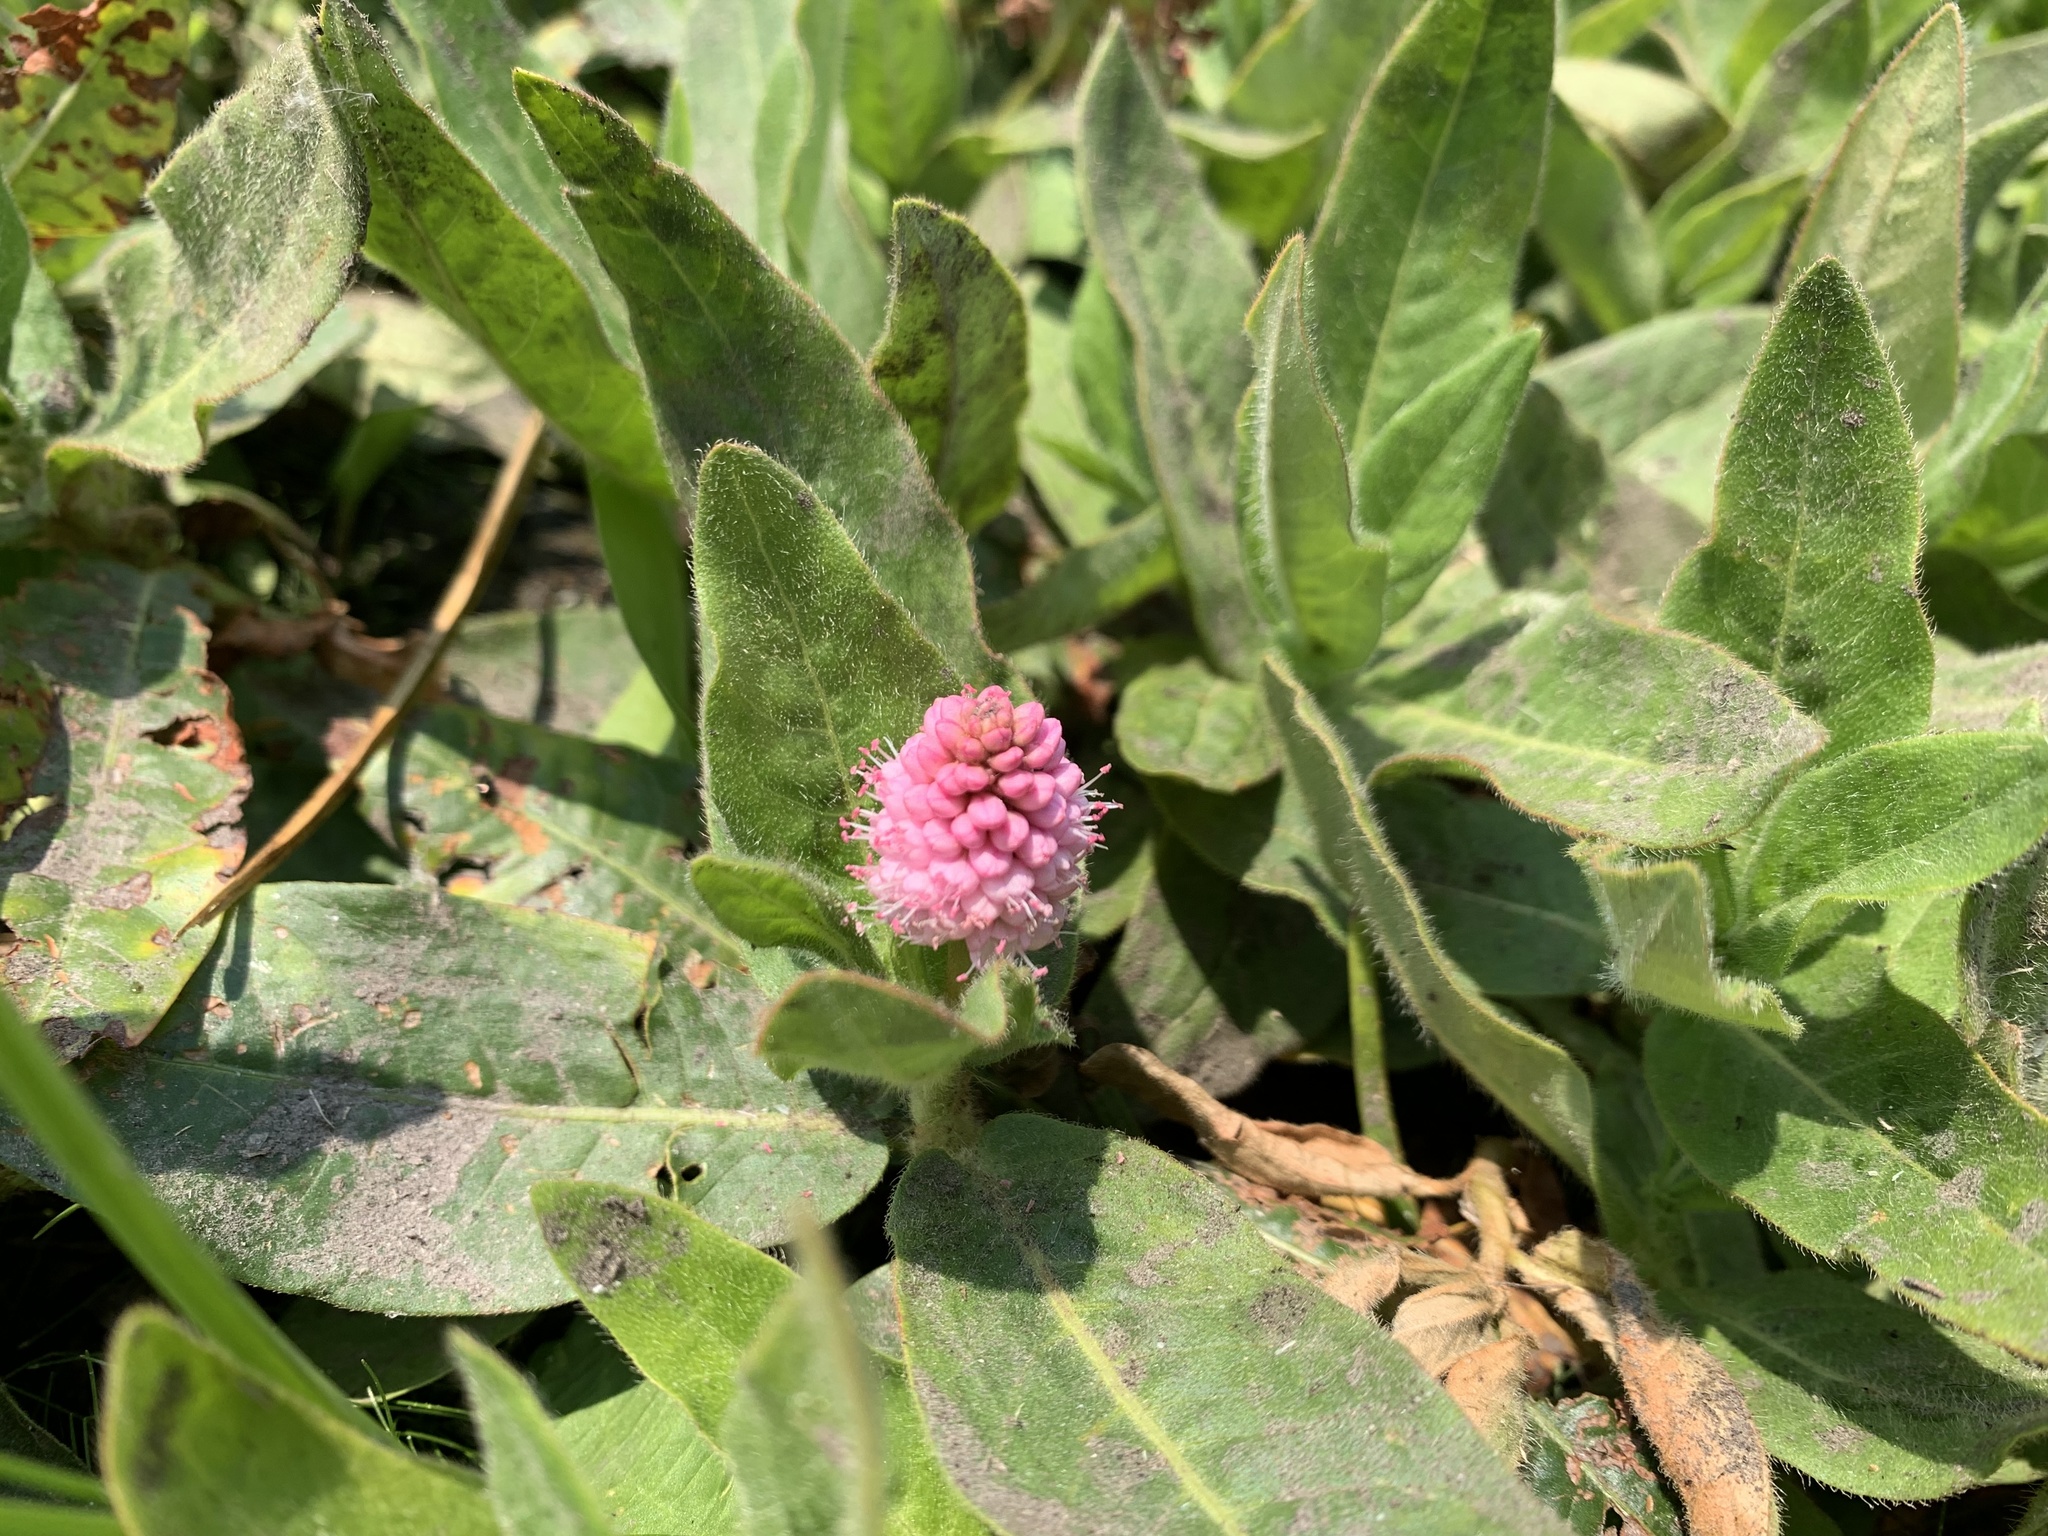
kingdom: Plantae
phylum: Tracheophyta
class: Magnoliopsida
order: Caryophyllales
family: Polygonaceae
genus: Persicaria
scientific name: Persicaria amphibia
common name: Amphibious bistort
